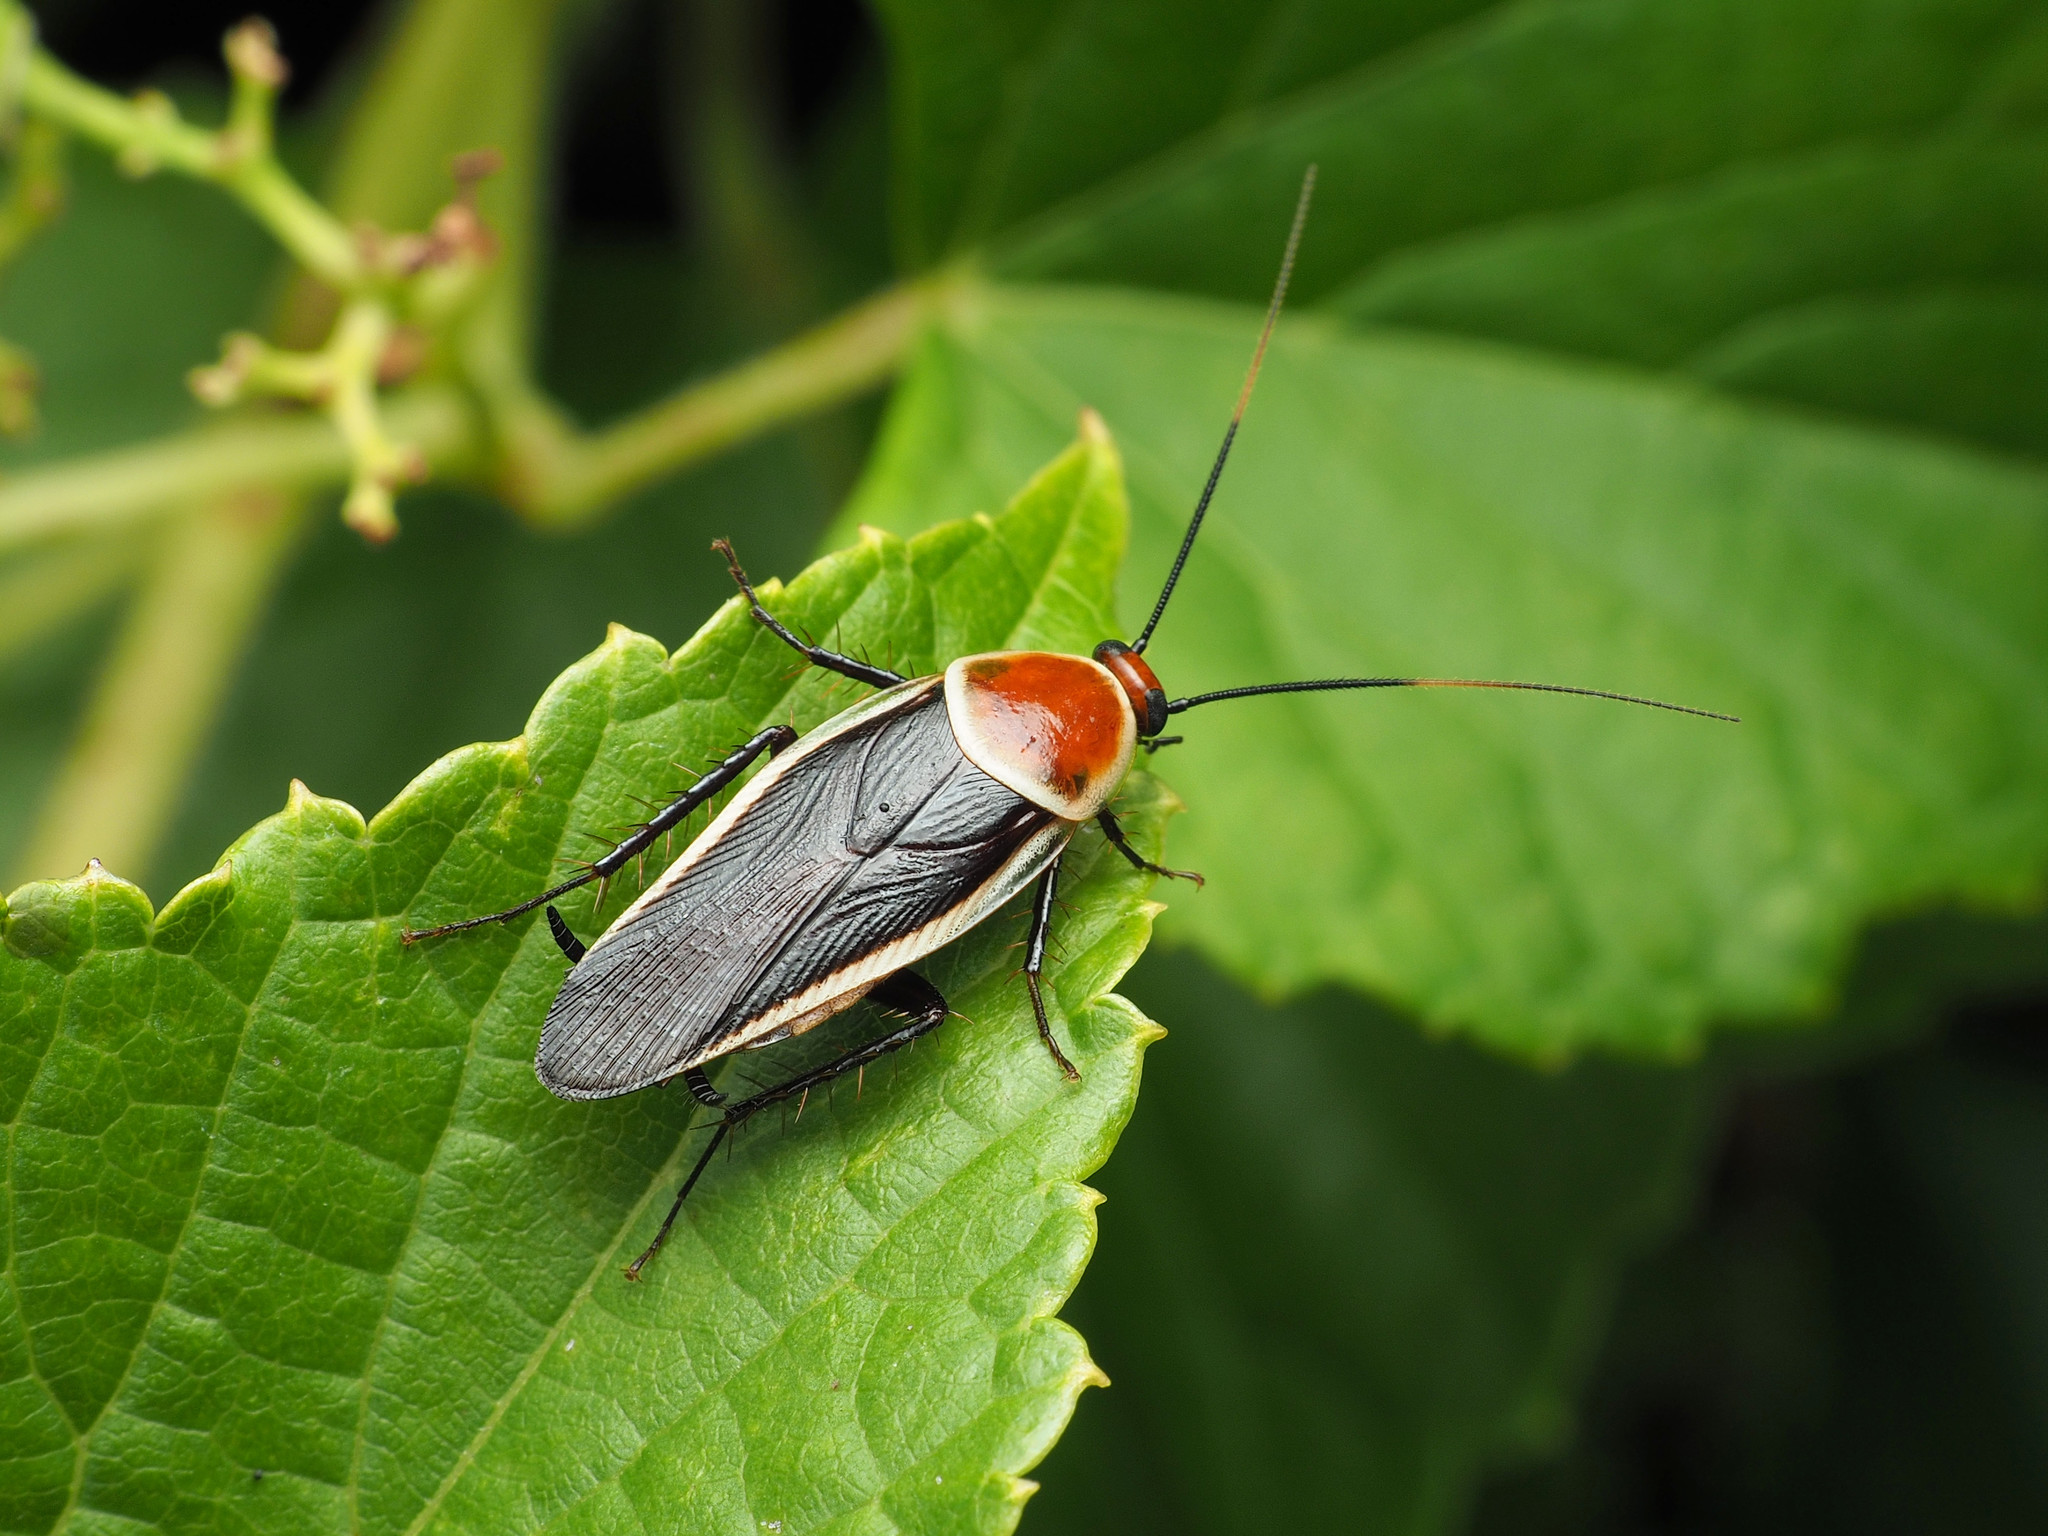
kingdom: Animalia
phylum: Arthropoda
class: Insecta
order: Blattodea
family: Ectobiidae
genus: Pseudomops
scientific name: Pseudomops septentrionalis
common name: Pale-bordered field cockroach
